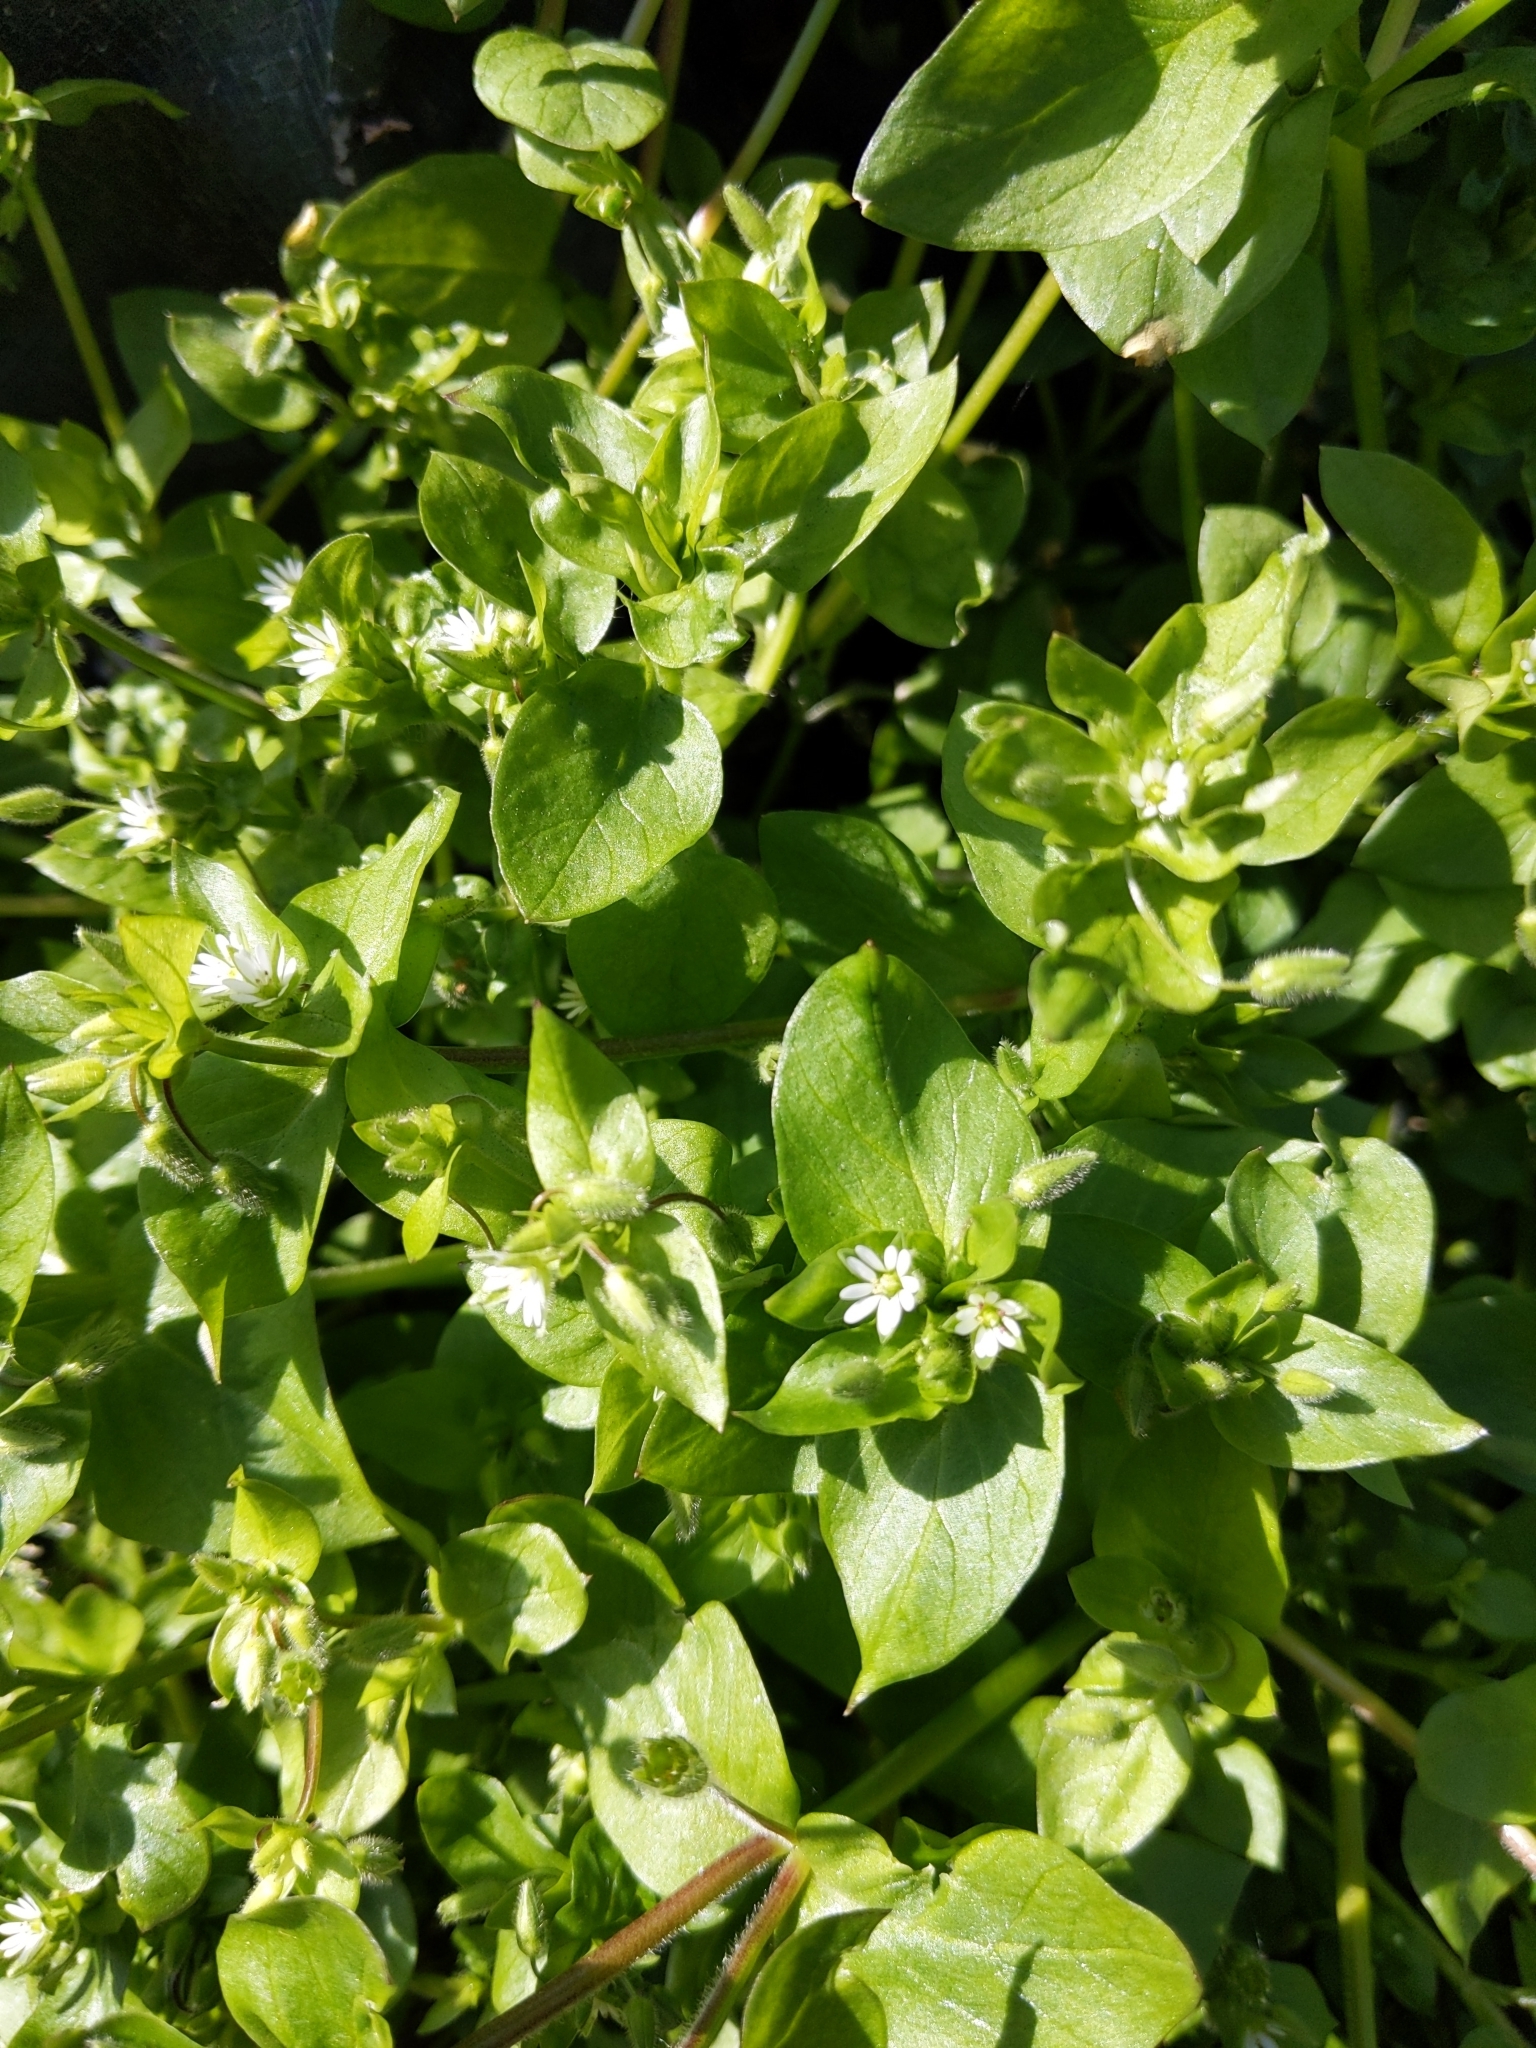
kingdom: Plantae
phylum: Tracheophyta
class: Magnoliopsida
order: Caryophyllales
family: Caryophyllaceae
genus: Stellaria
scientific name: Stellaria media
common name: Common chickweed
